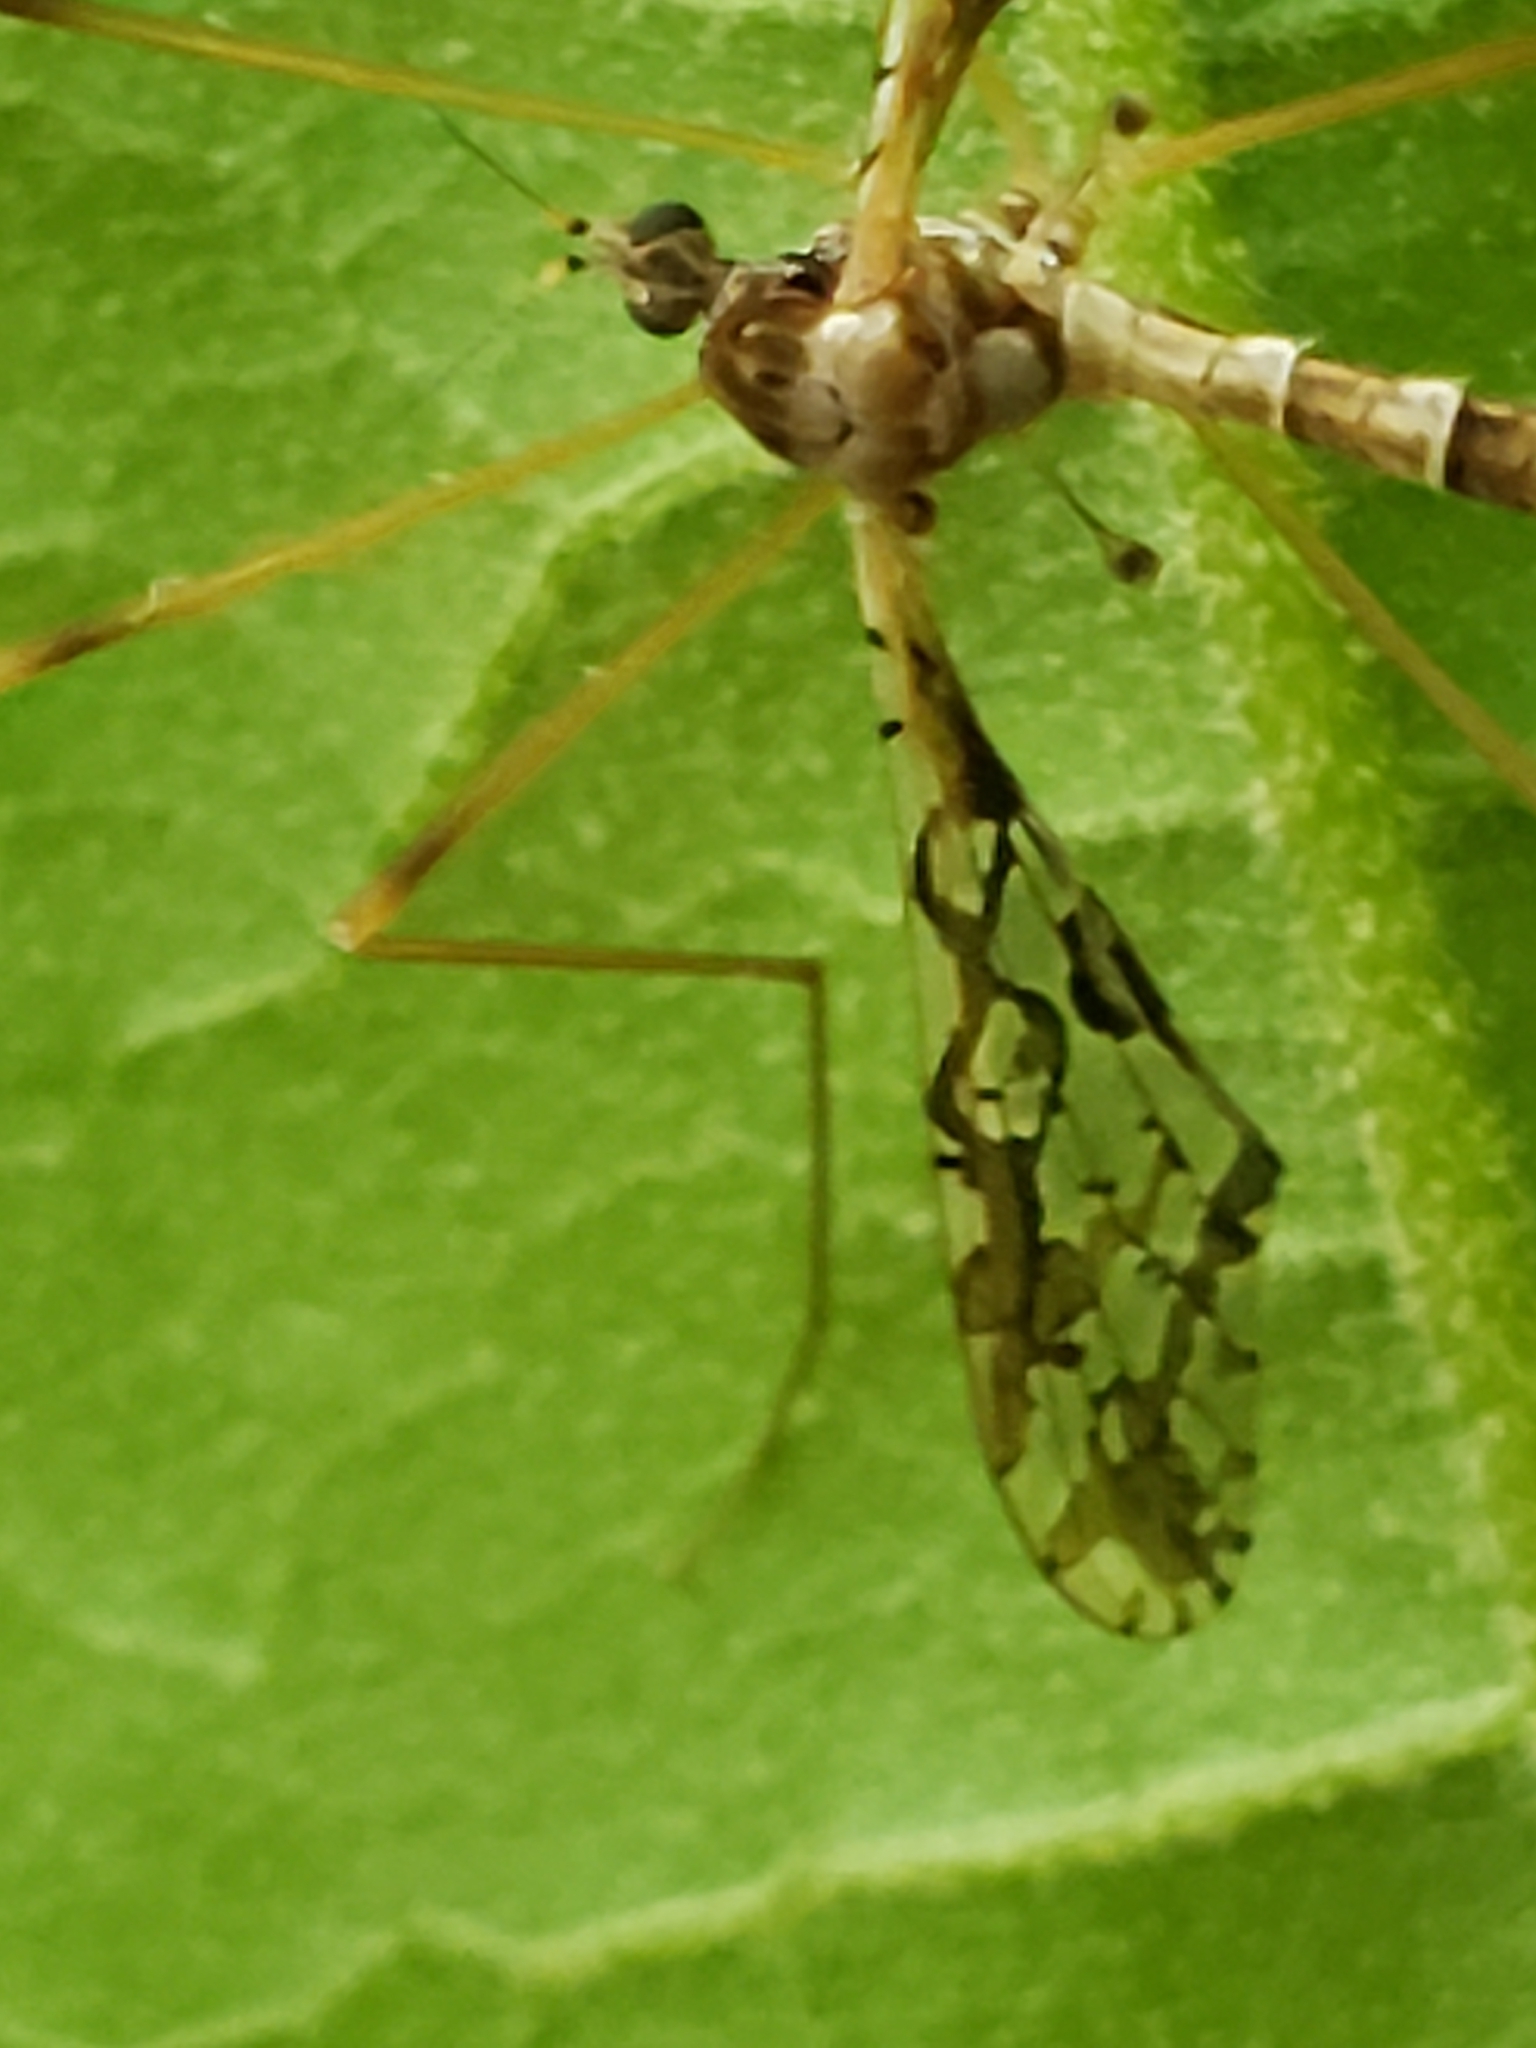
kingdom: Animalia
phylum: Arthropoda
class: Insecta
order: Diptera
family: Limoniidae
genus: Epiphragma
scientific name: Epiphragma solatrix
